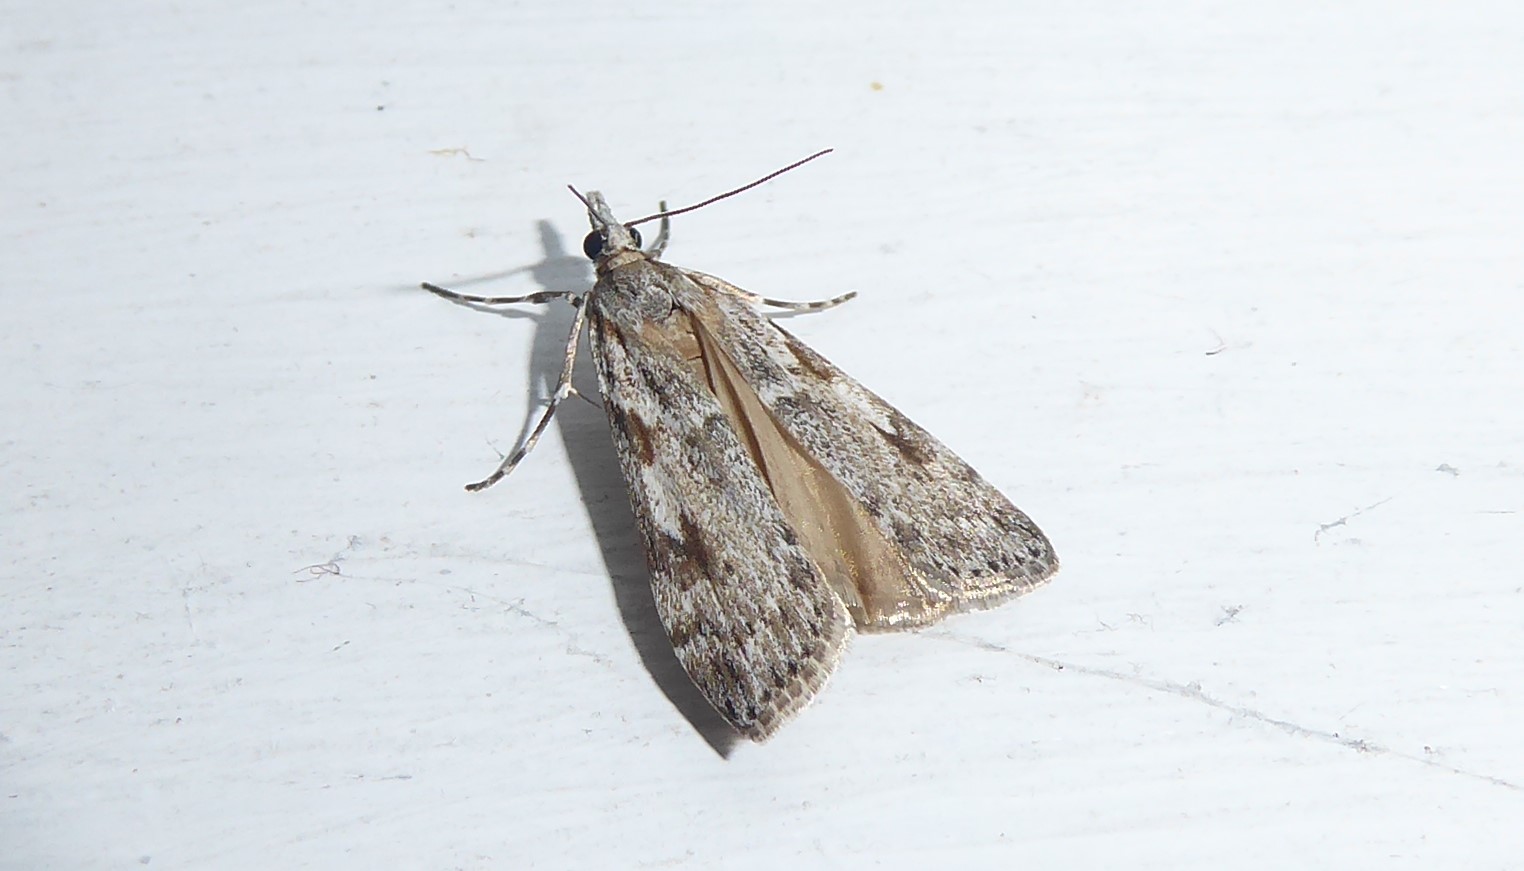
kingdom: Animalia
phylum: Arthropoda
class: Insecta
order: Lepidoptera
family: Crambidae
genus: Scoparia
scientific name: Scoparia halopis
